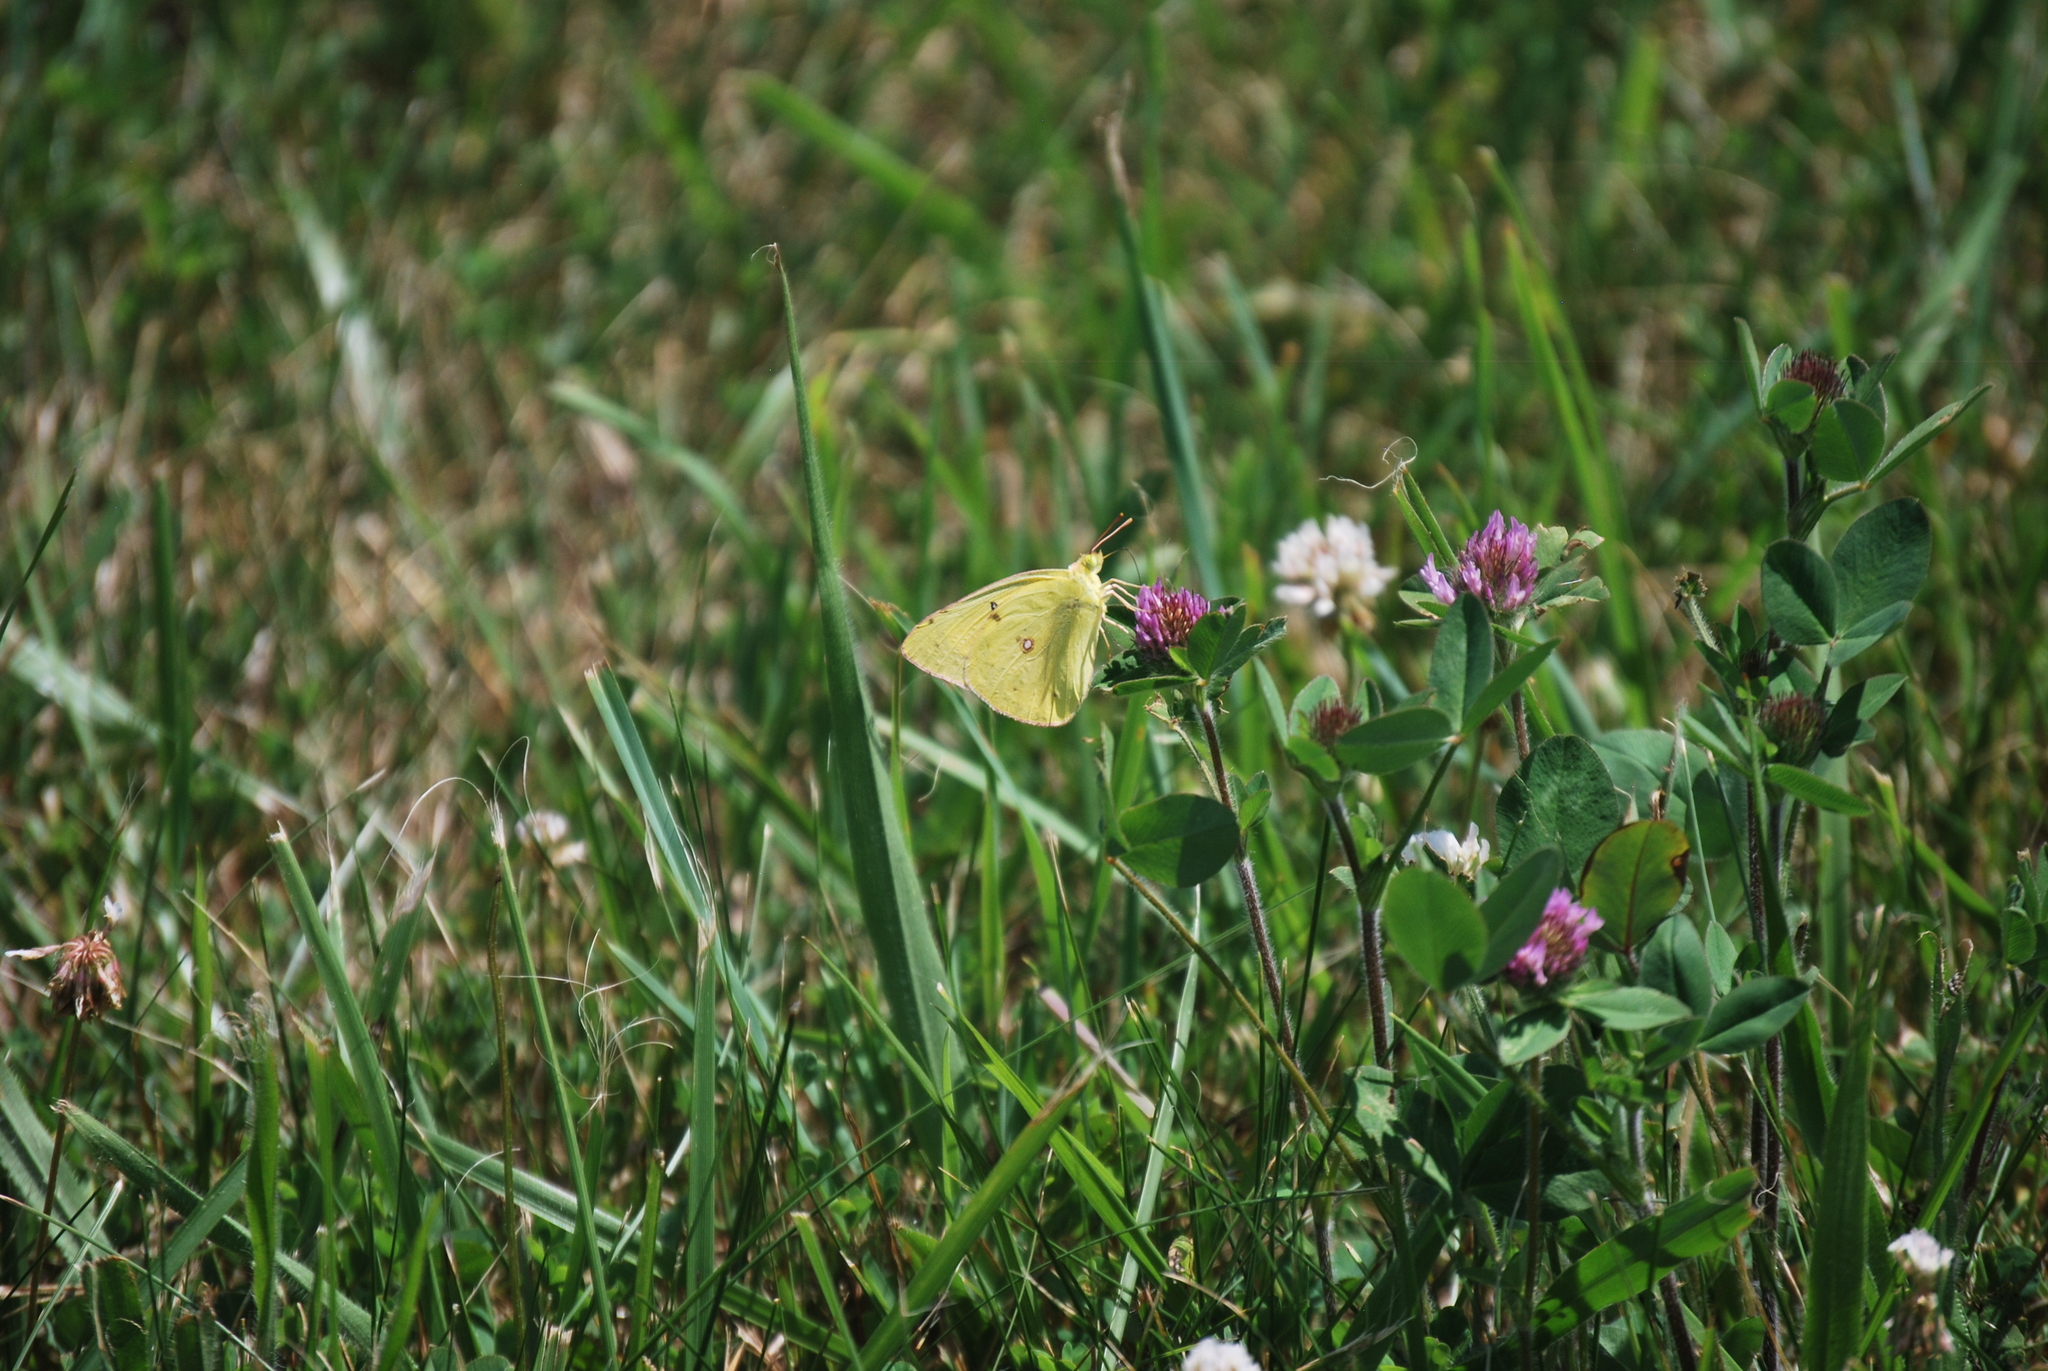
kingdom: Animalia
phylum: Arthropoda
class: Insecta
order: Lepidoptera
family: Pieridae
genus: Colias
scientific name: Colias philodice
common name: Clouded sulphur
